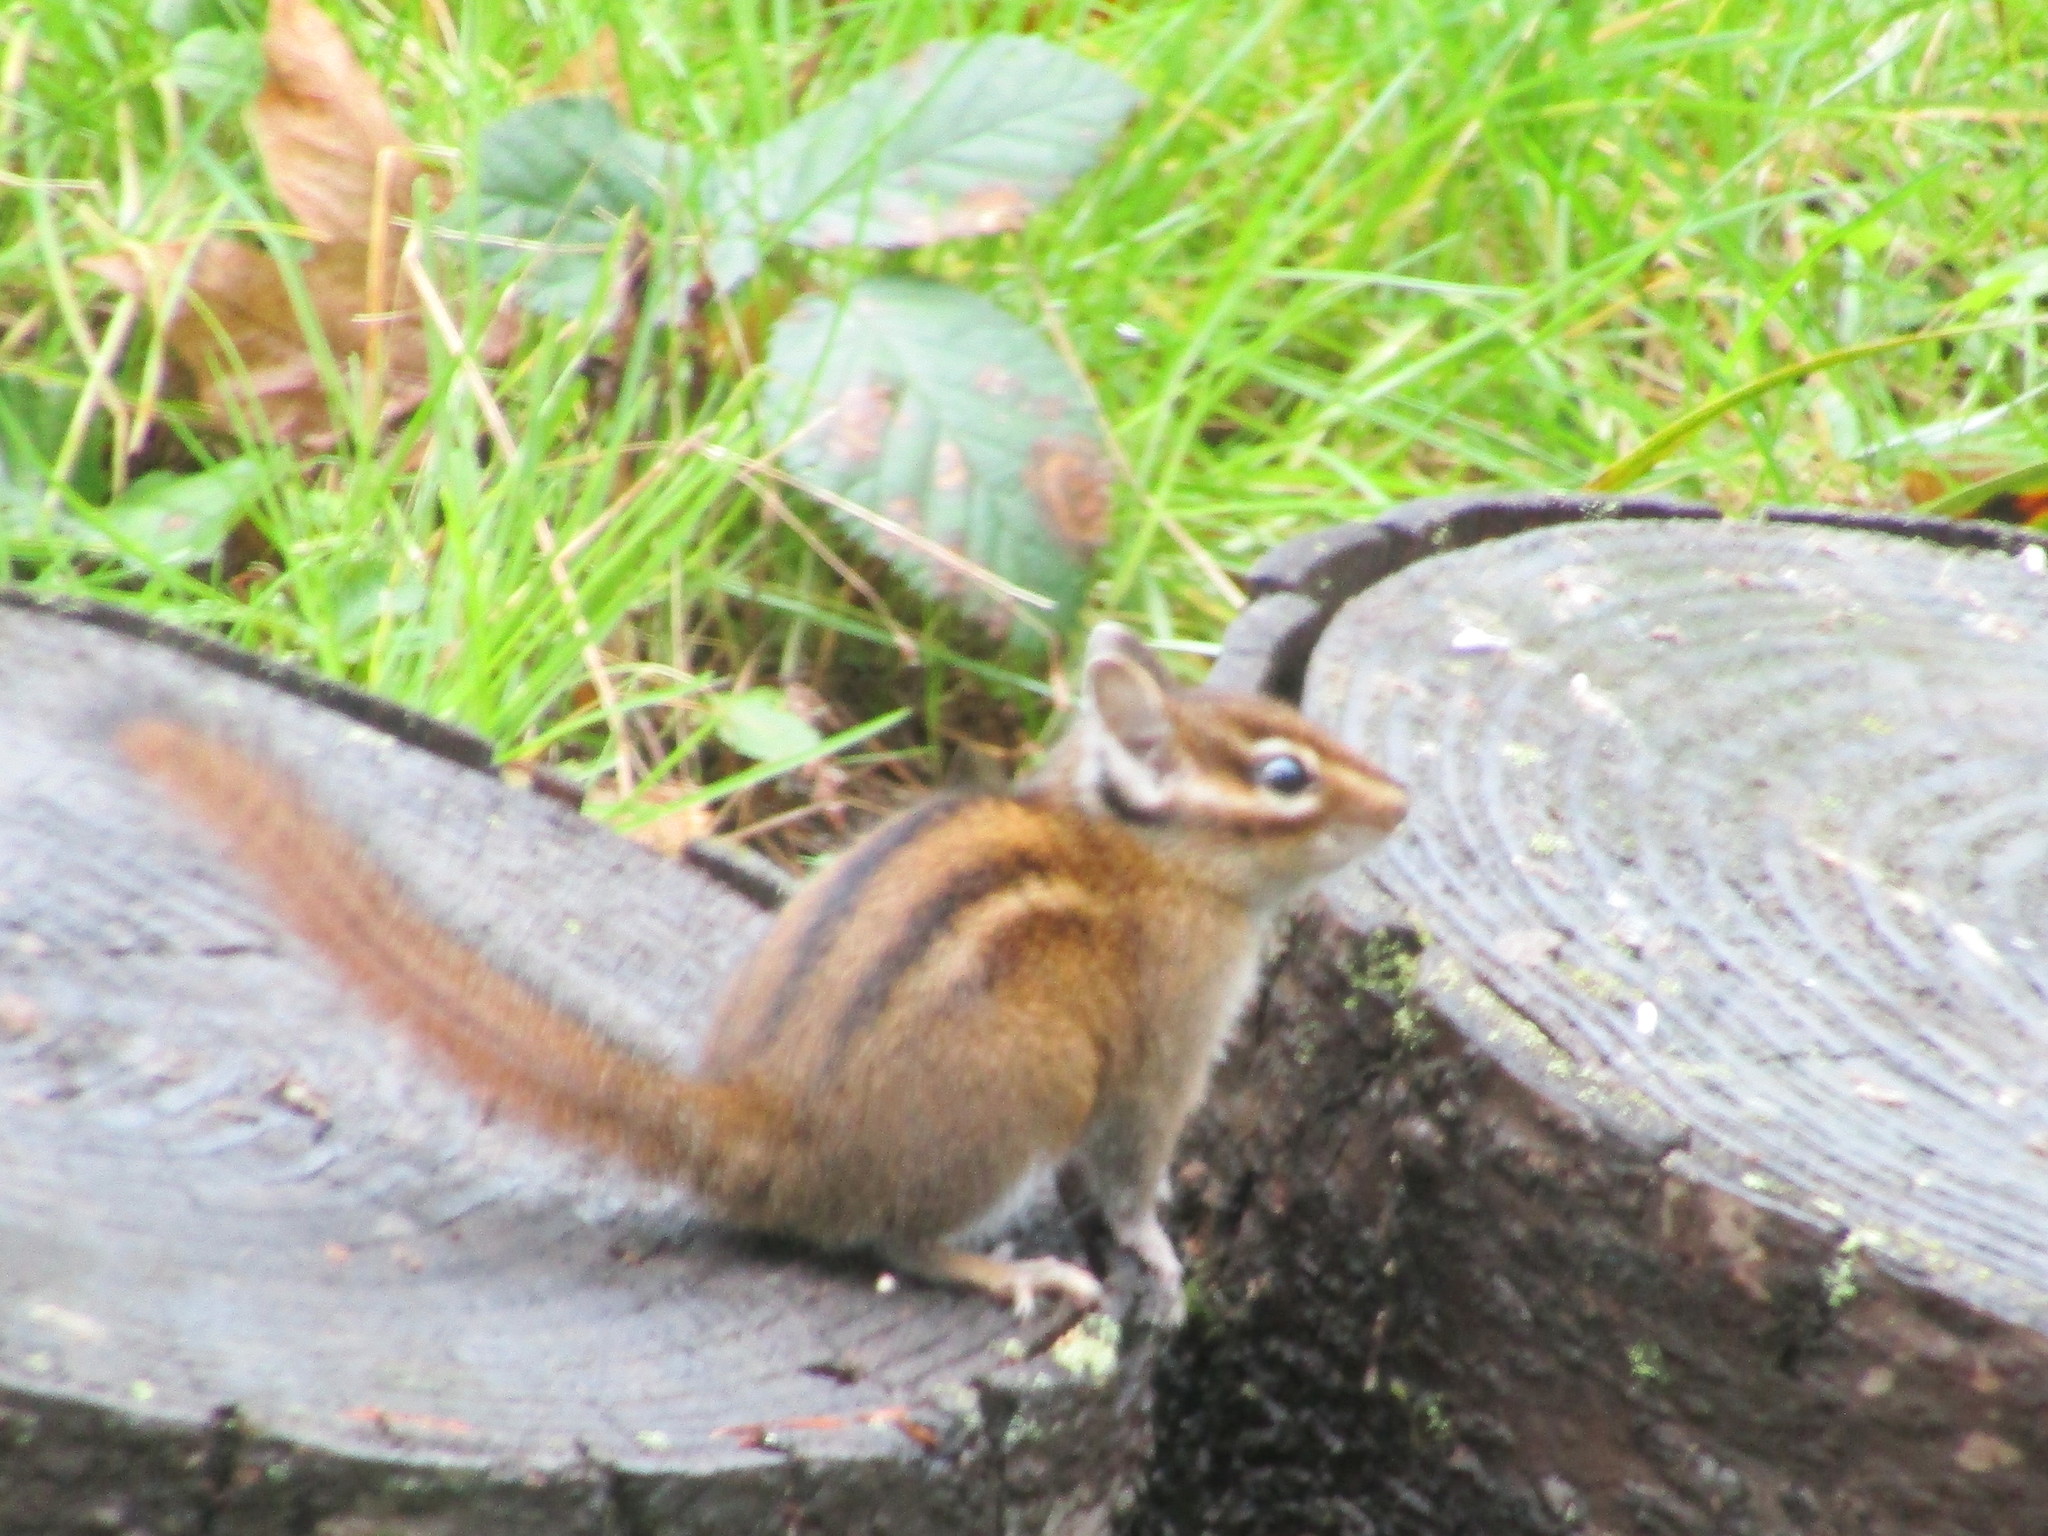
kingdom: Animalia
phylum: Chordata
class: Mammalia
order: Rodentia
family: Sciuridae
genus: Tamias
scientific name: Tamias townsendii
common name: Townsend's chipmunk
